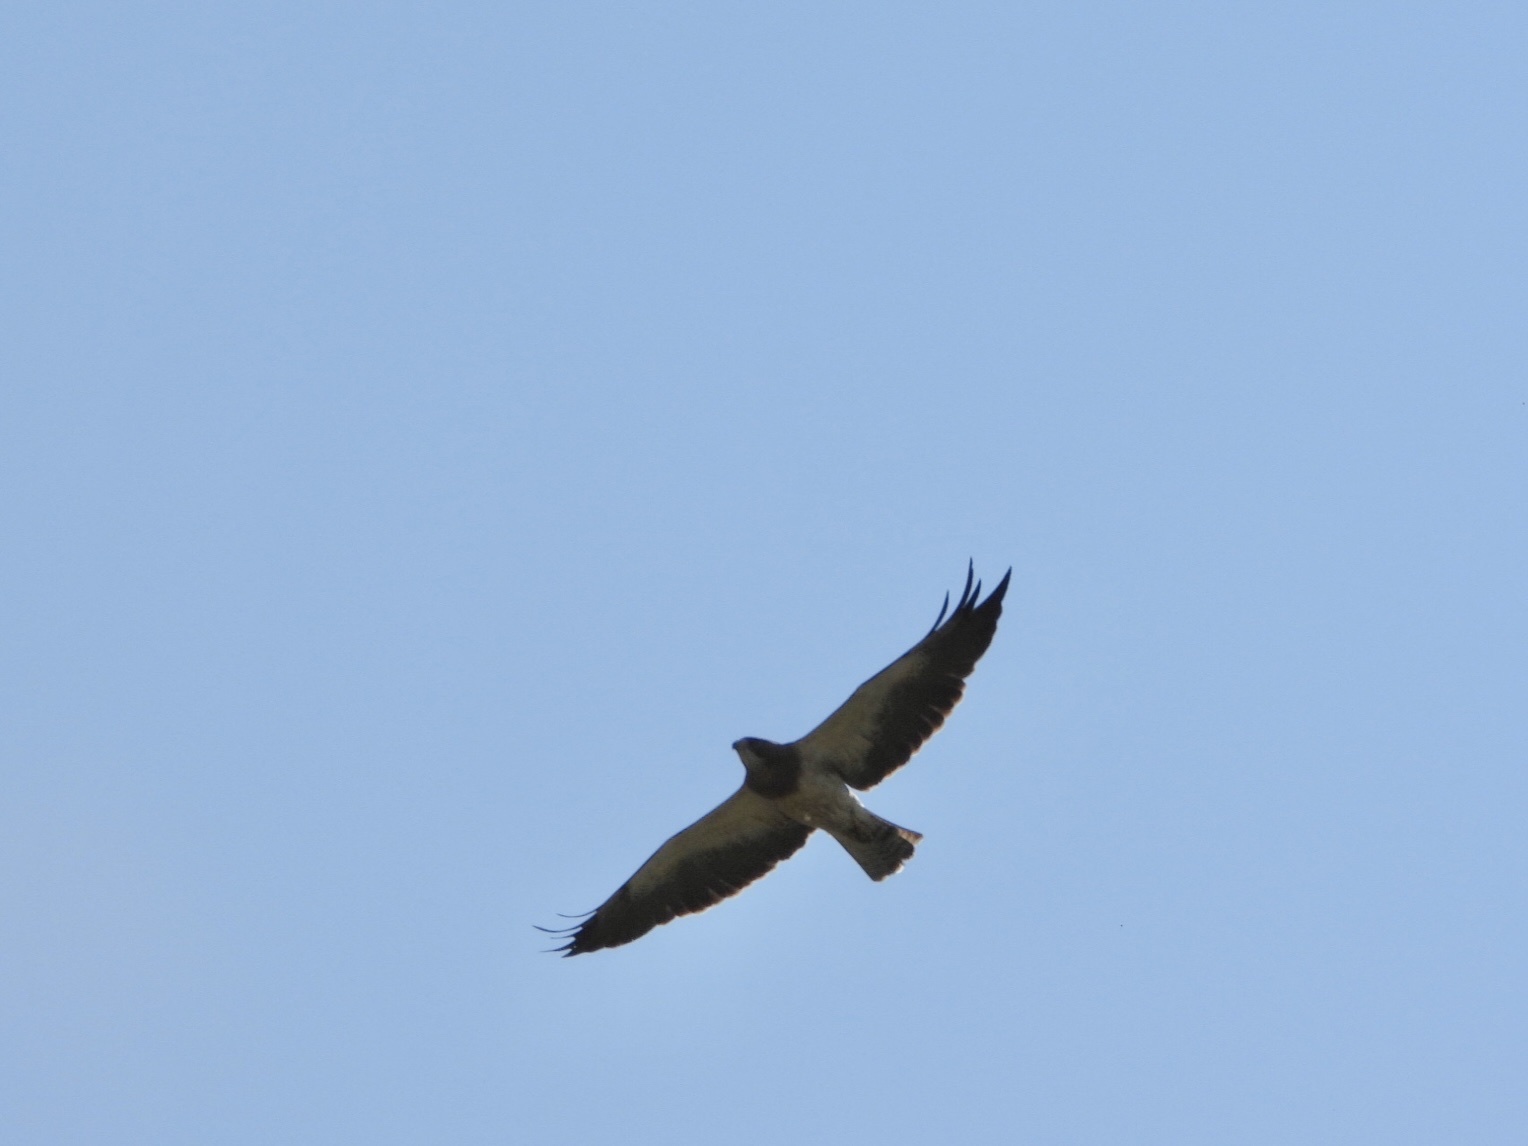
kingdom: Animalia
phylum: Chordata
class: Aves
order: Accipitriformes
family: Accipitridae
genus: Buteo
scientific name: Buteo swainsoni
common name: Swainson's hawk
